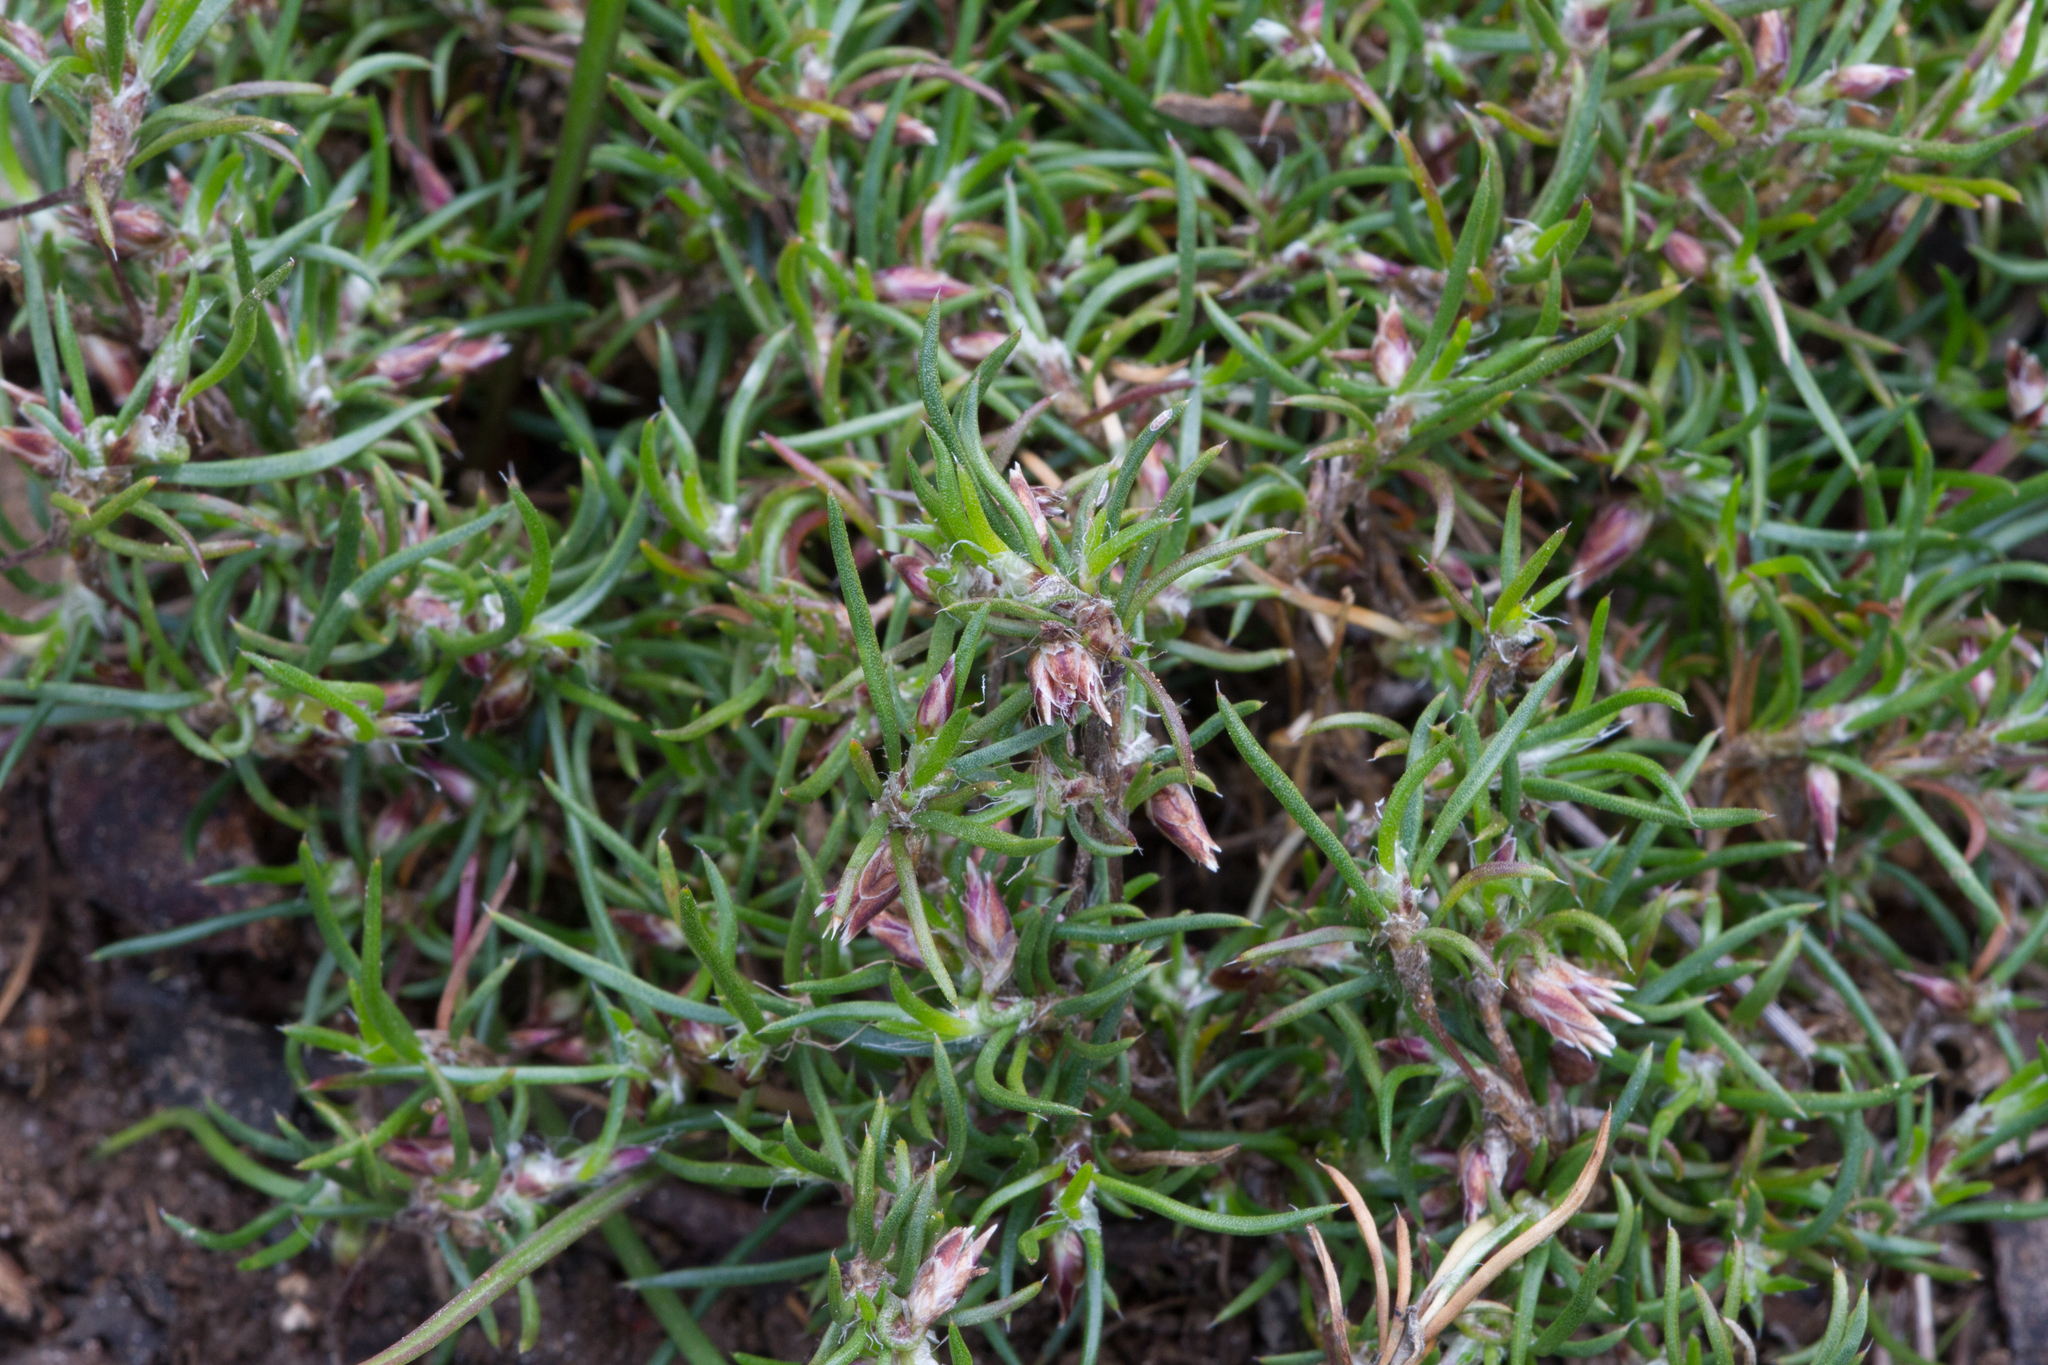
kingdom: Plantae
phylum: Tracheophyta
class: Liliopsida
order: Asparagales
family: Asparagaceae
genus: Laxmannia
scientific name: Laxmannia orientalis
